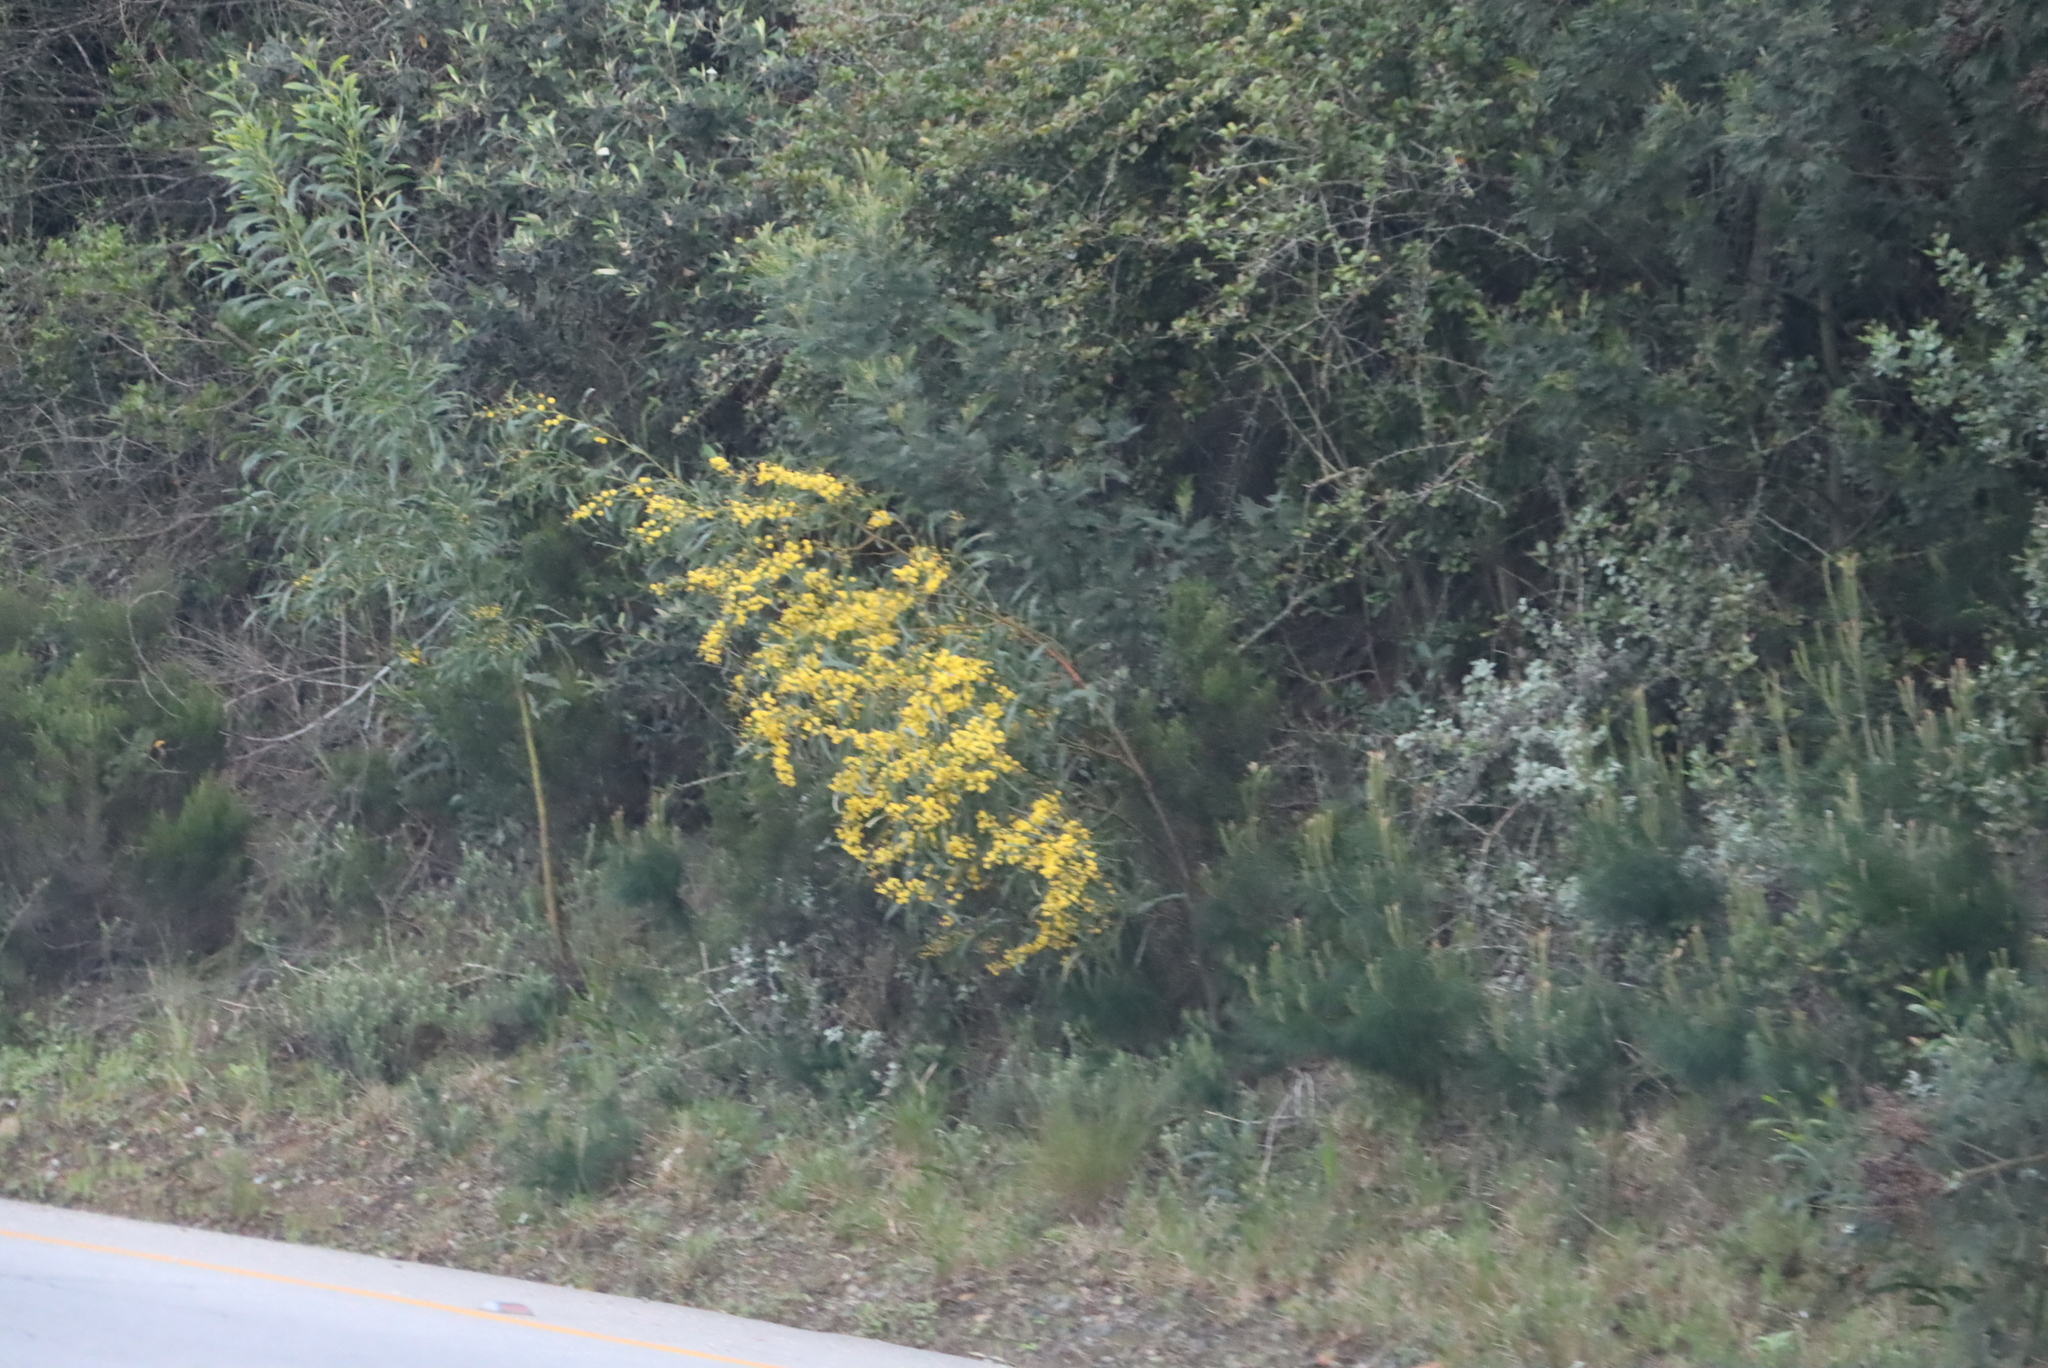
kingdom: Plantae
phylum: Tracheophyta
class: Magnoliopsida
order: Fabales
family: Fabaceae
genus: Acacia
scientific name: Acacia saligna
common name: Orange wattle
